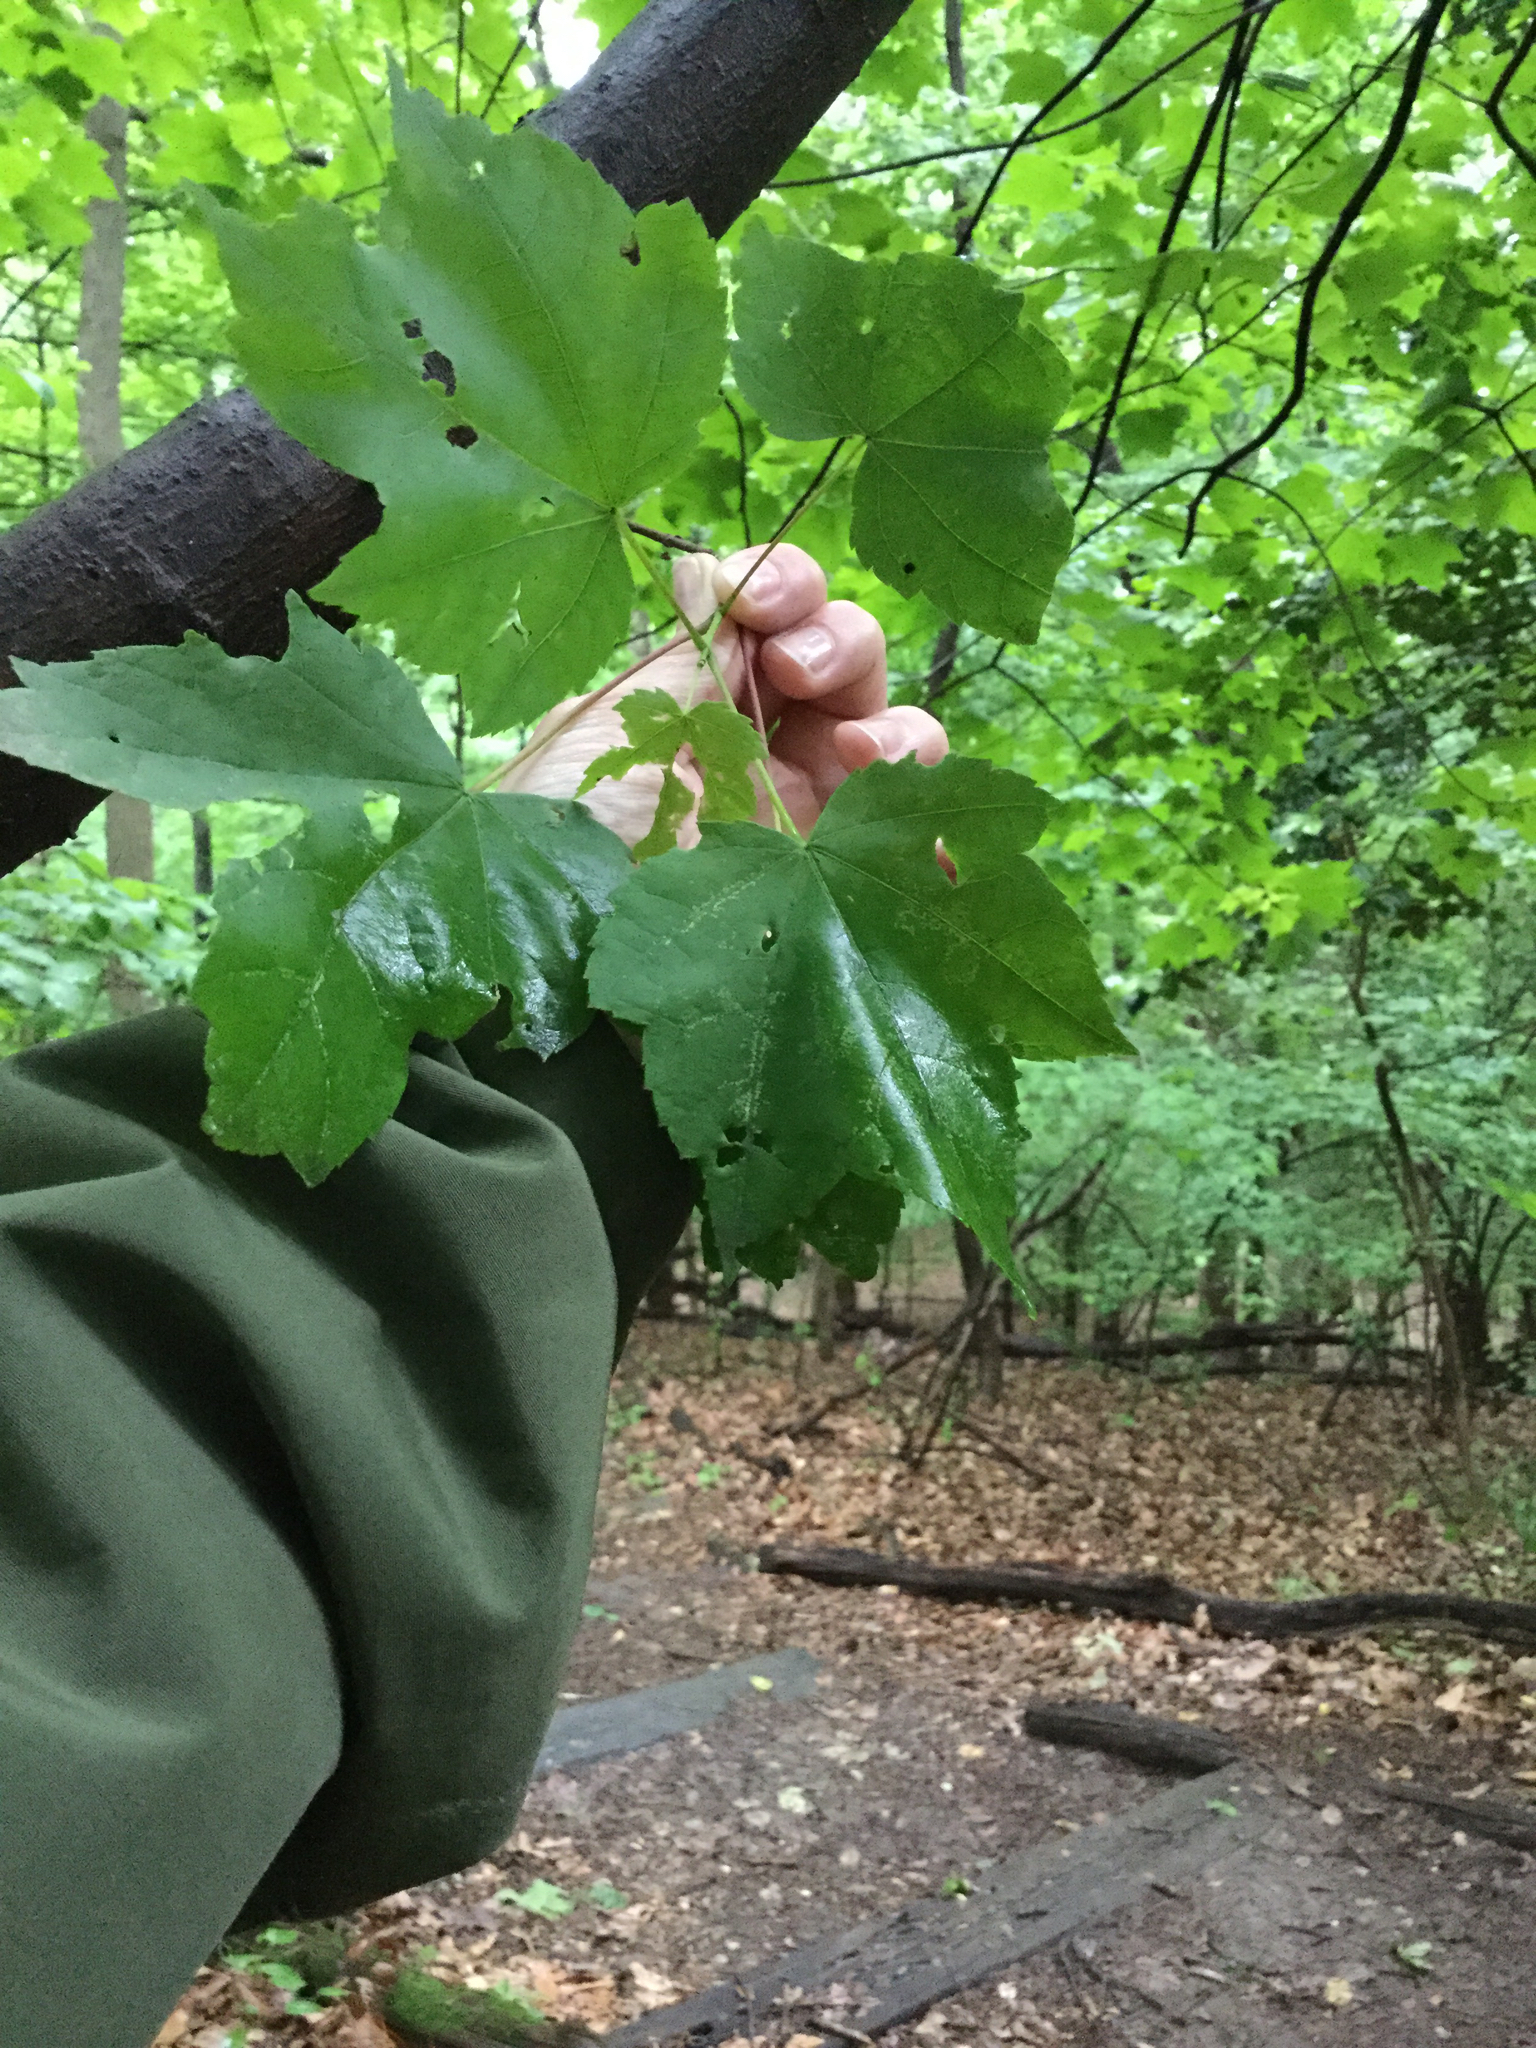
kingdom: Plantae
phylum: Tracheophyta
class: Magnoliopsida
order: Sapindales
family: Sapindaceae
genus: Acer
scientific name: Acer rubrum
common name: Red maple
